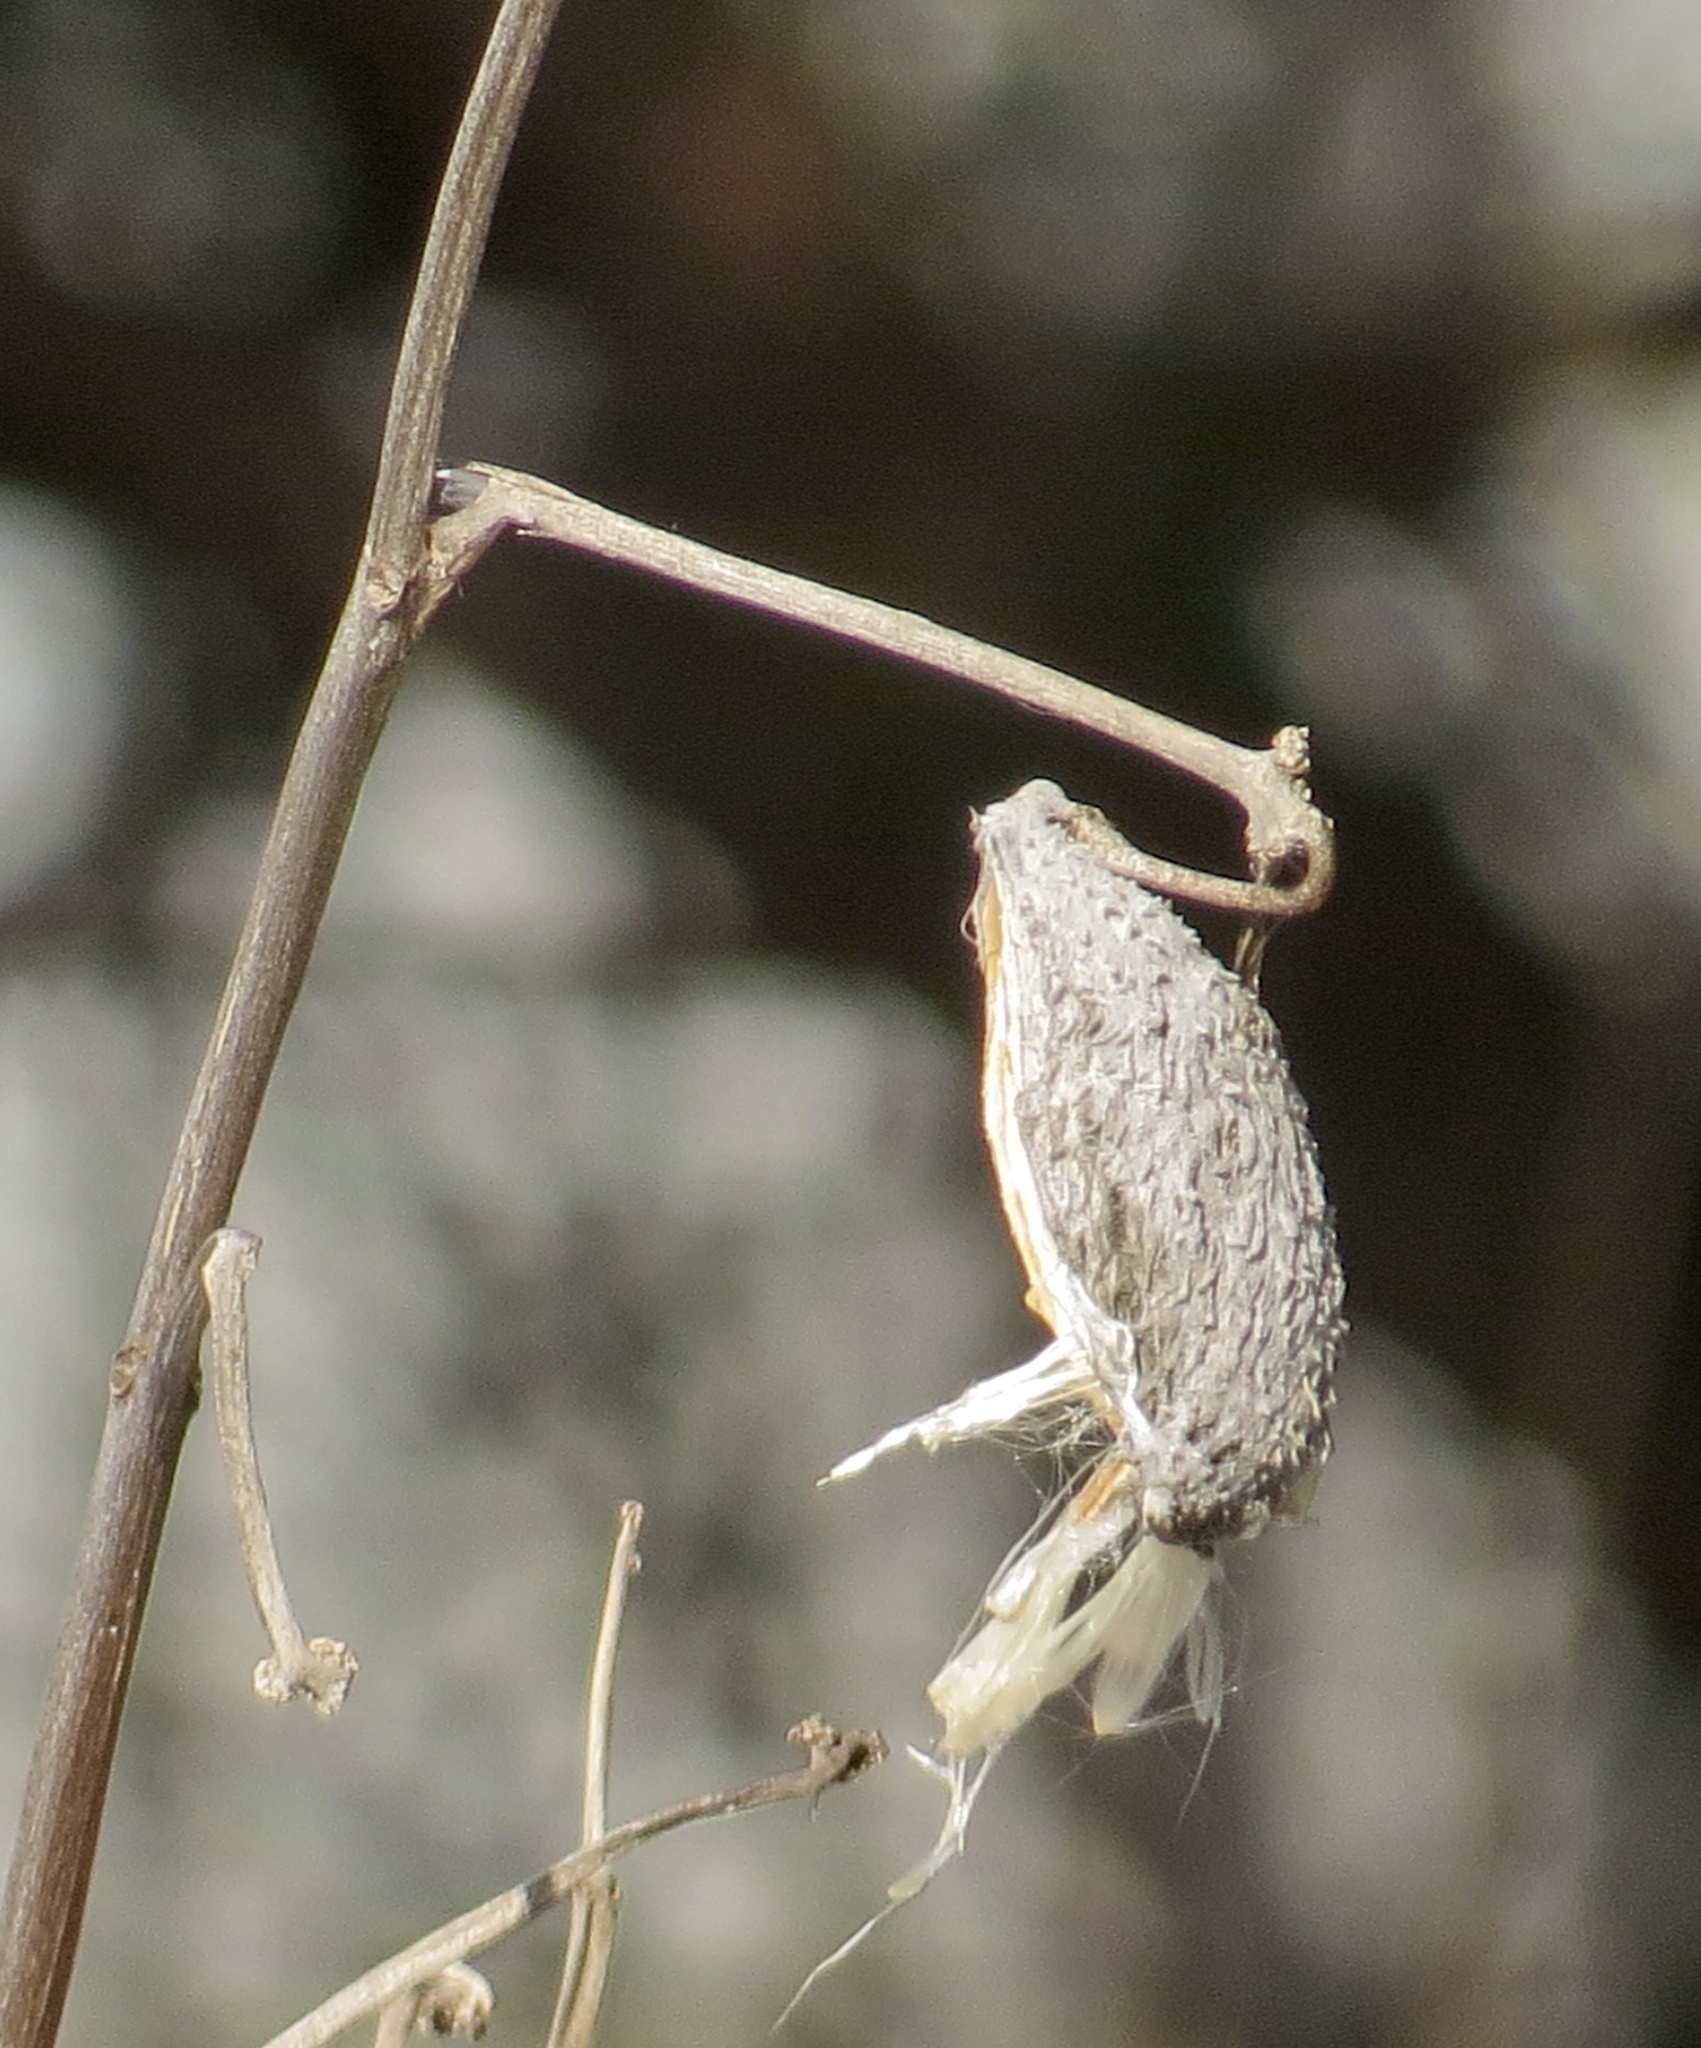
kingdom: Plantae
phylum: Tracheophyta
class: Magnoliopsida
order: Gentianales
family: Apocynaceae
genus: Asclepias
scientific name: Asclepias syriaca
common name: Common milkweed
